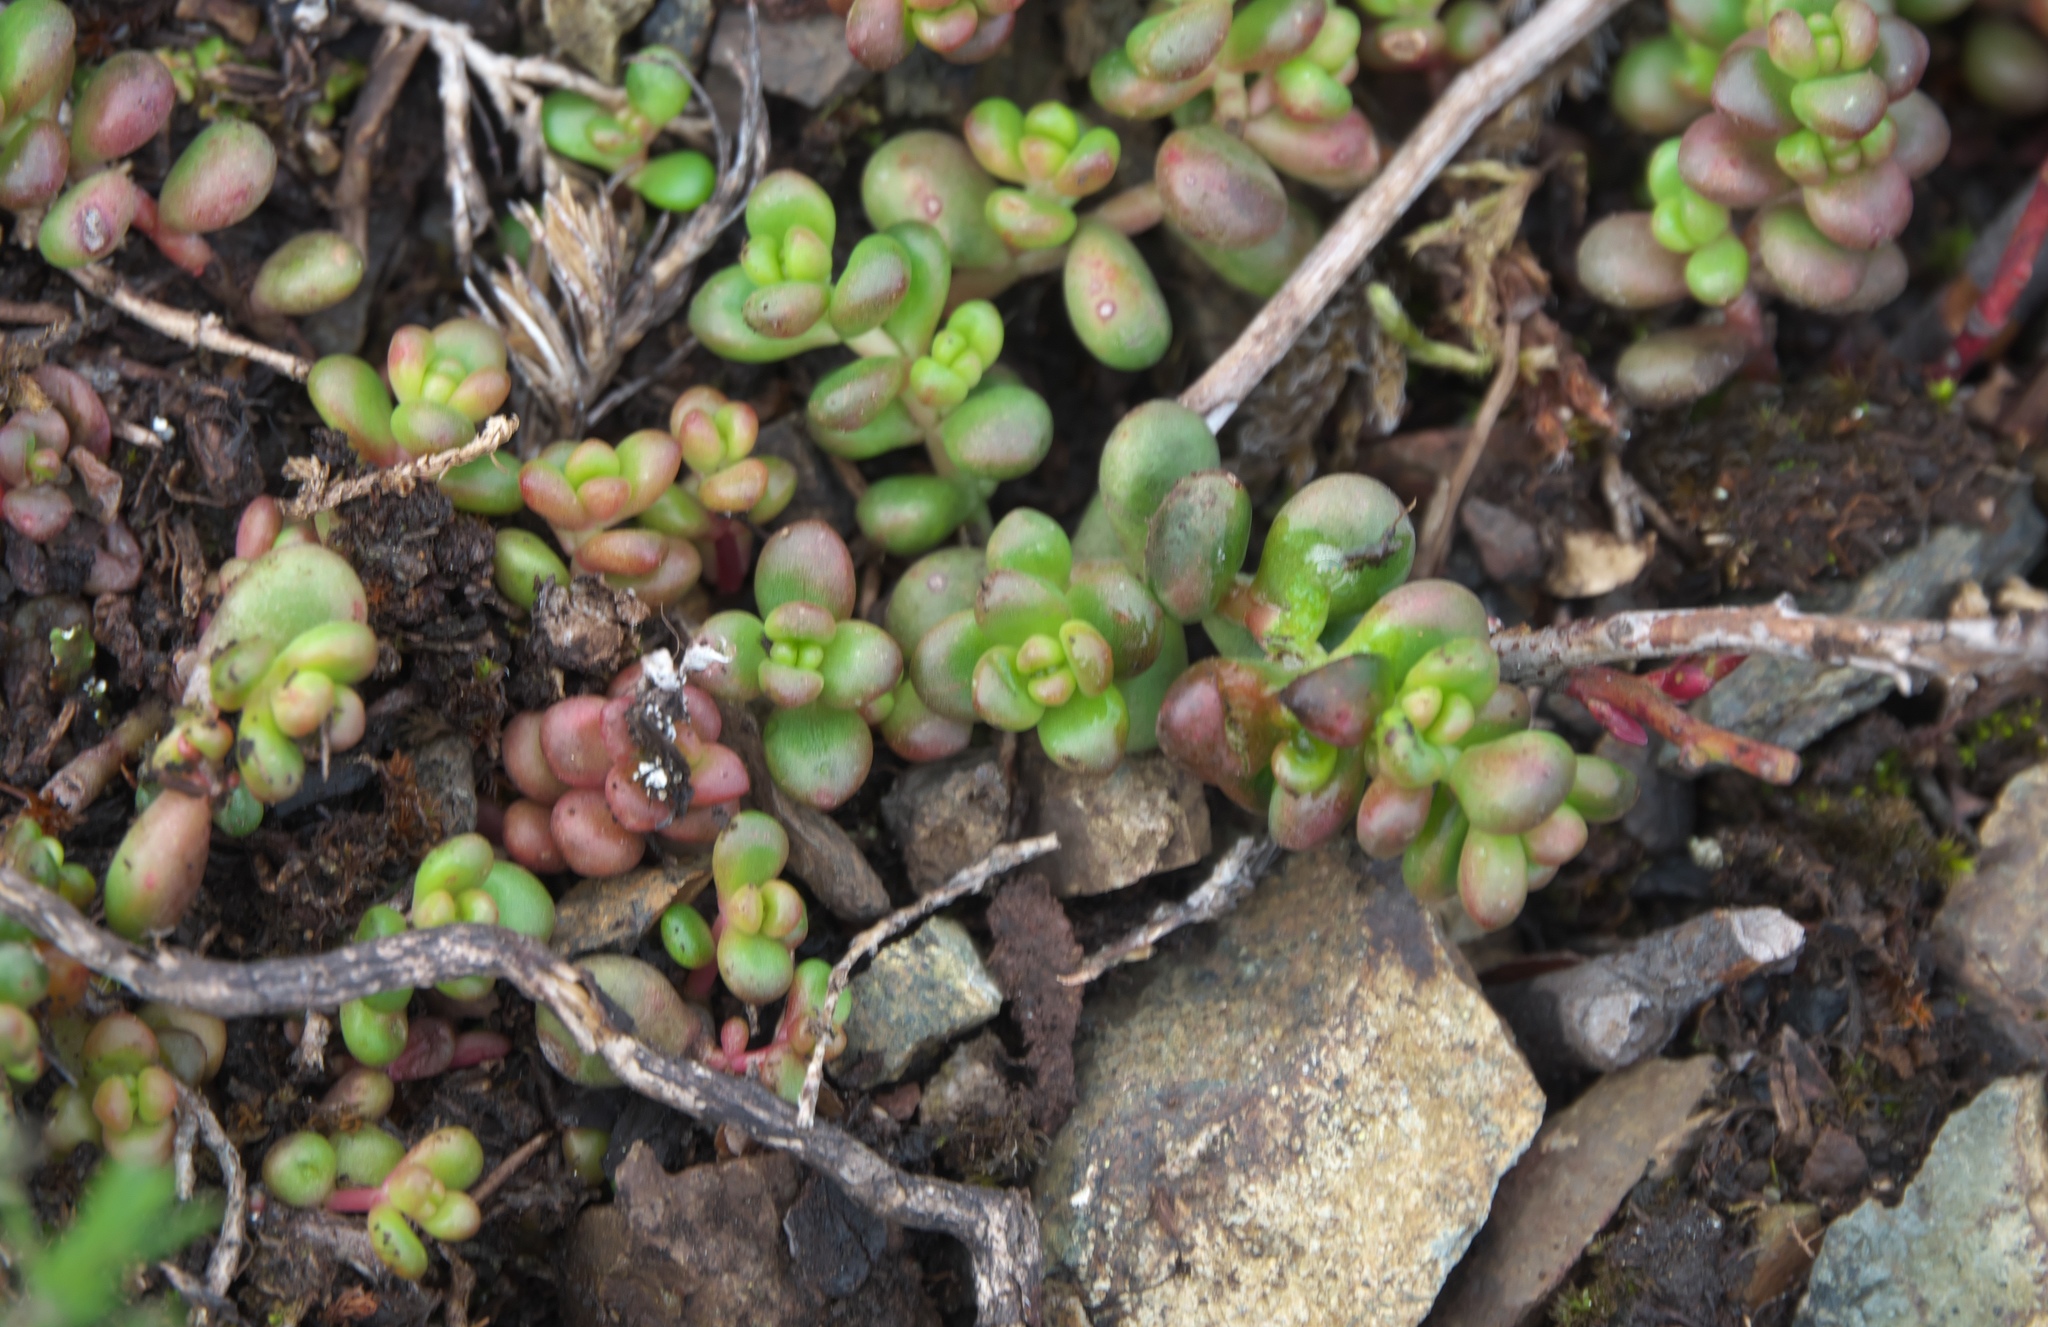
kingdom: Plantae
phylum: Tracheophyta
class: Magnoliopsida
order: Saxifragales
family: Crassulaceae
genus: Sedum
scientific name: Sedum divergens
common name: Cascade stonecrop
